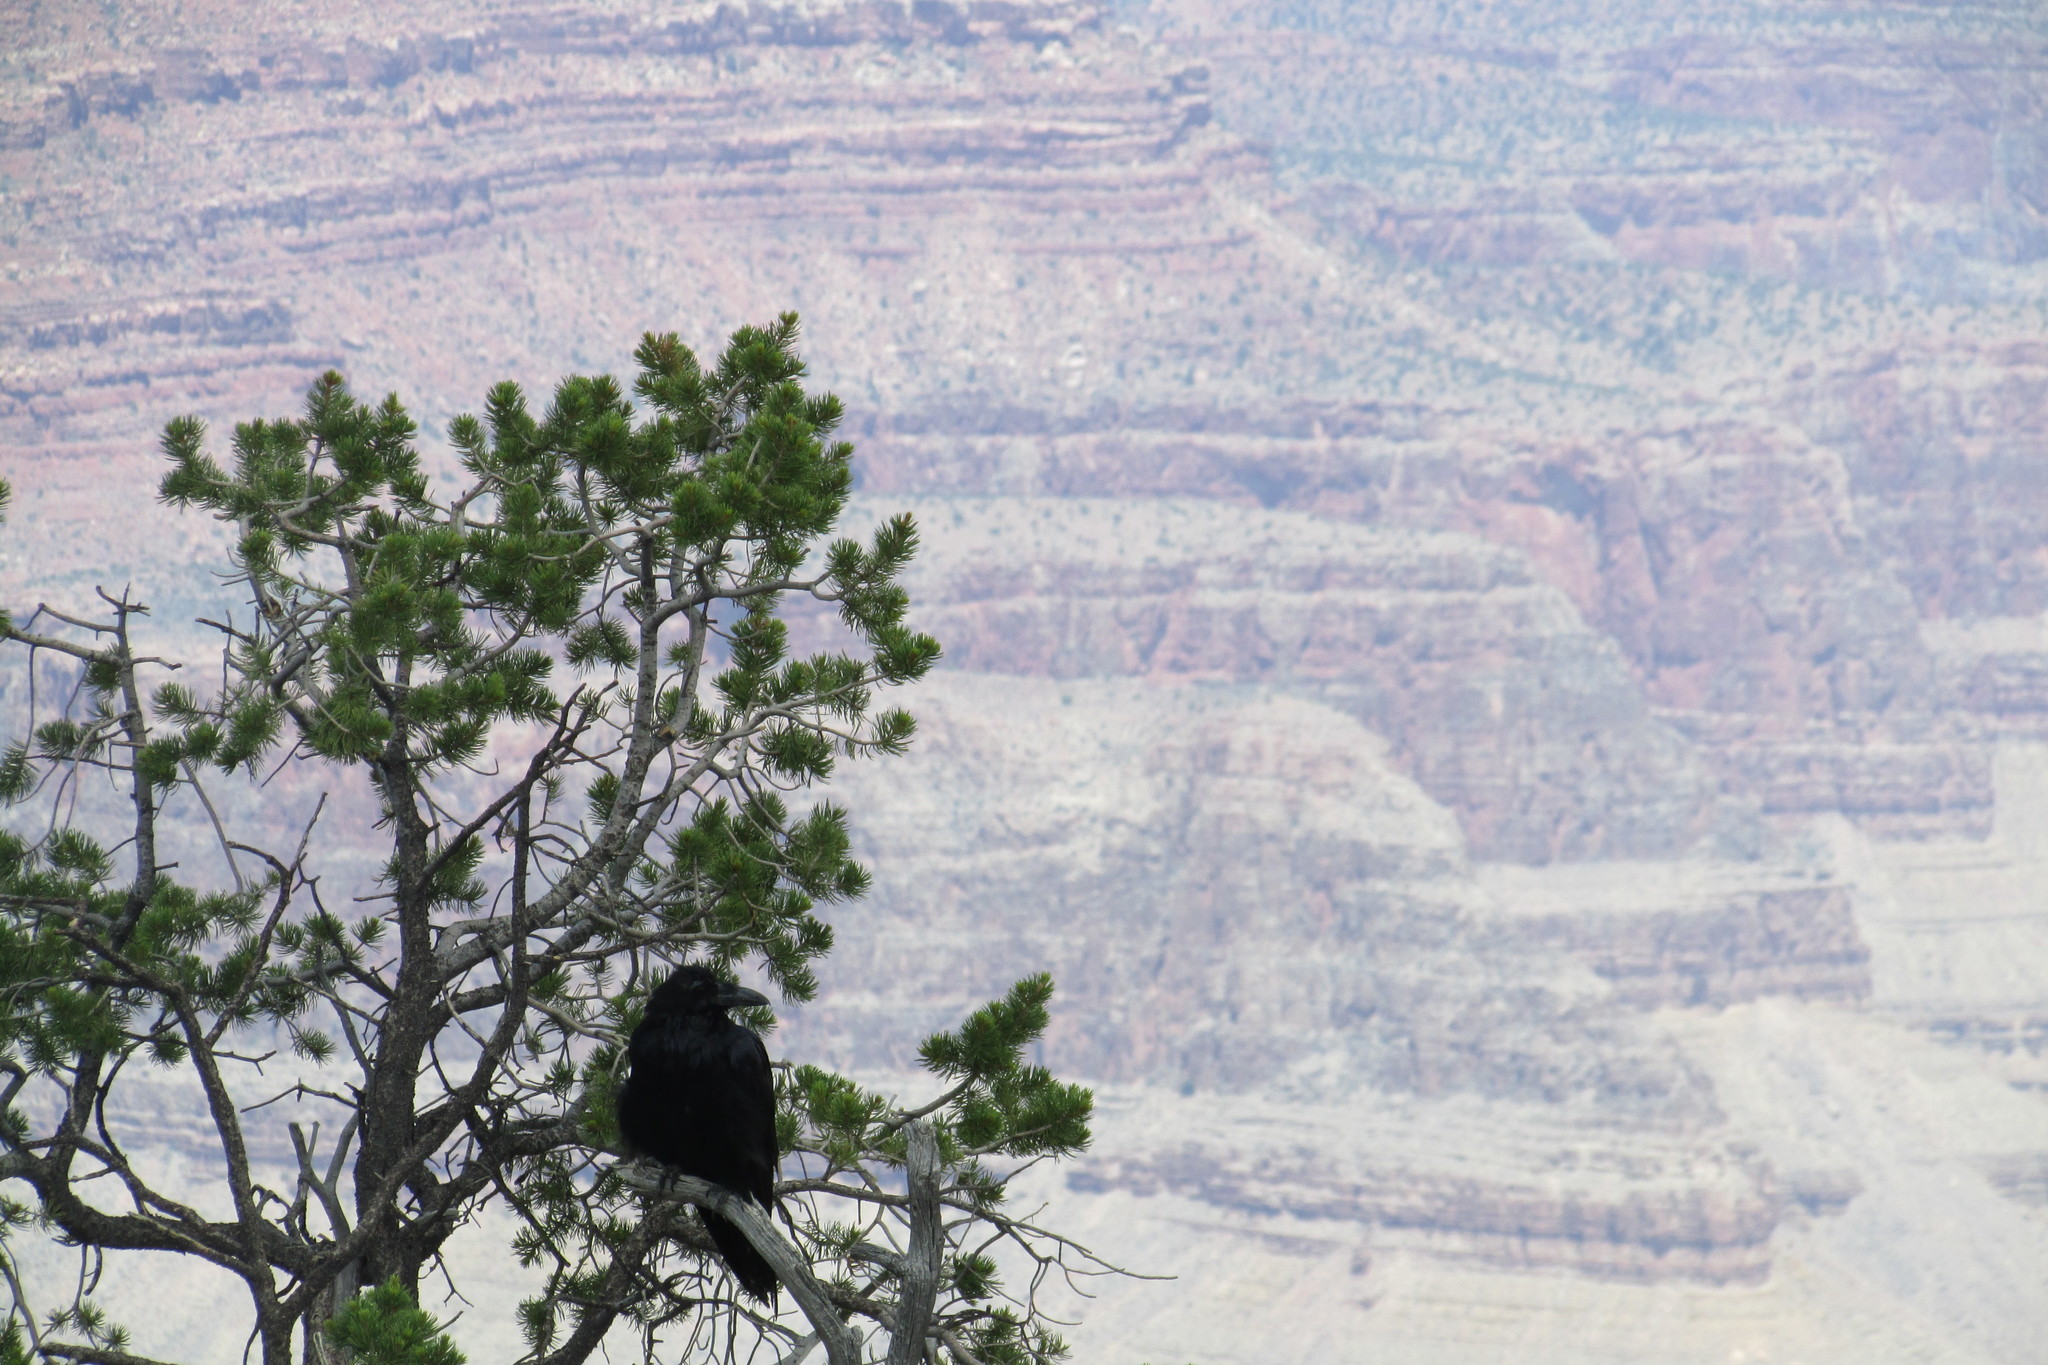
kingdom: Animalia
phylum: Chordata
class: Aves
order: Passeriformes
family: Corvidae
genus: Corvus
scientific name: Corvus corax
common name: Common raven
